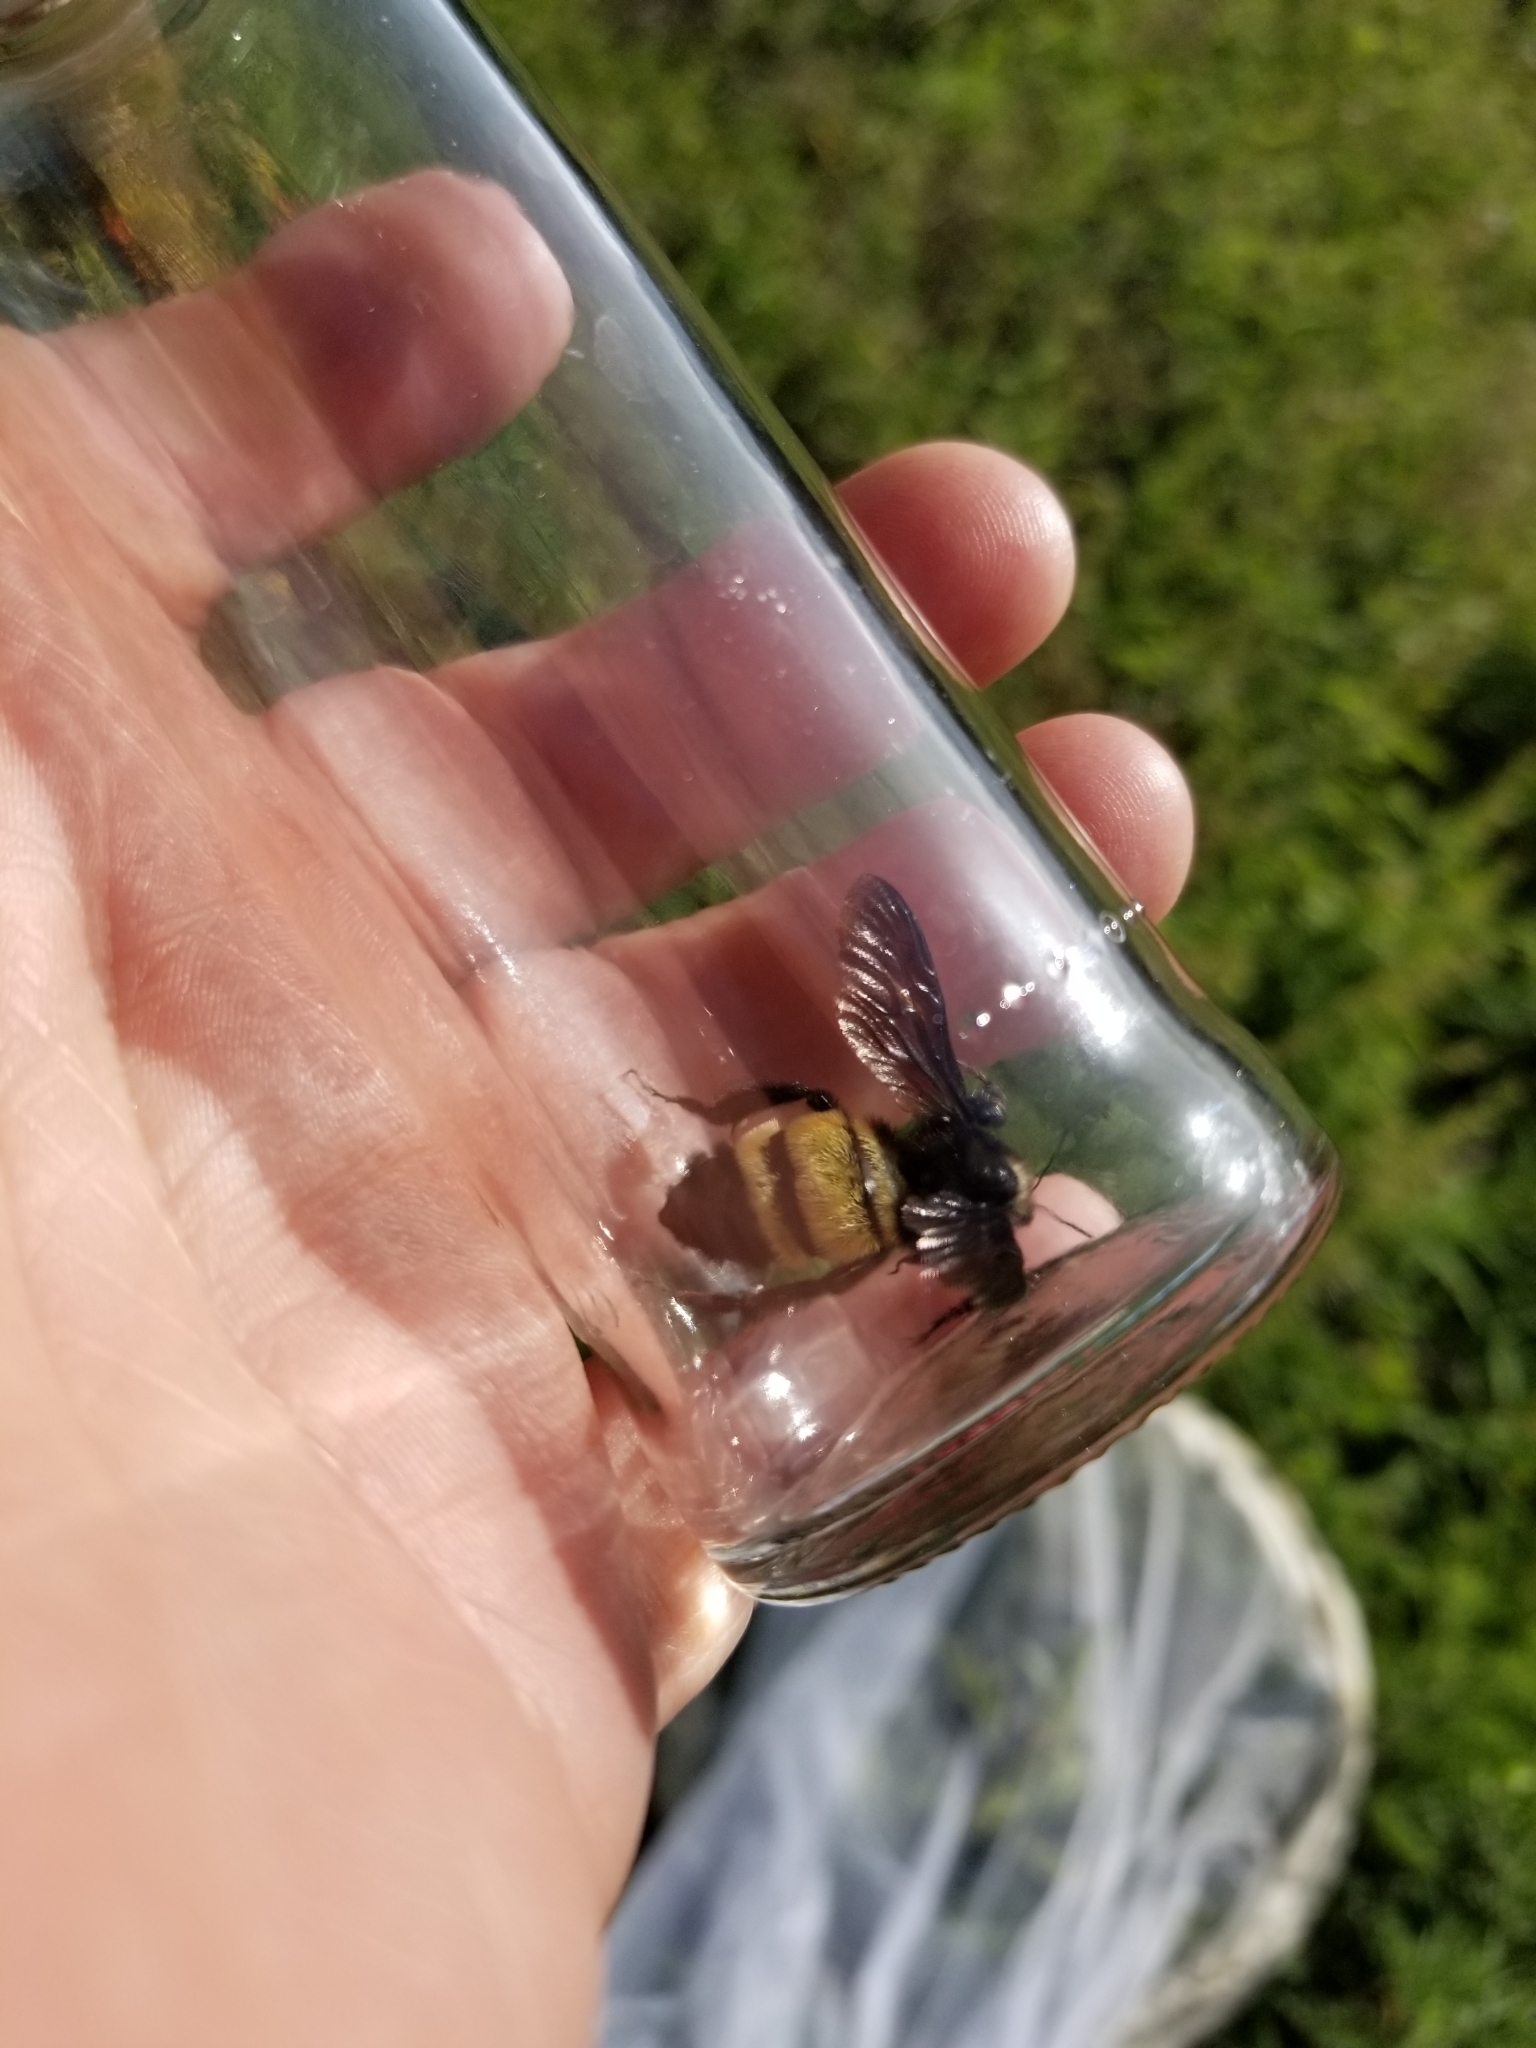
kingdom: Animalia
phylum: Arthropoda
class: Insecta
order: Hymenoptera
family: Apidae
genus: Bombus
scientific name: Bombus pensylvanicus
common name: Bumble bee
